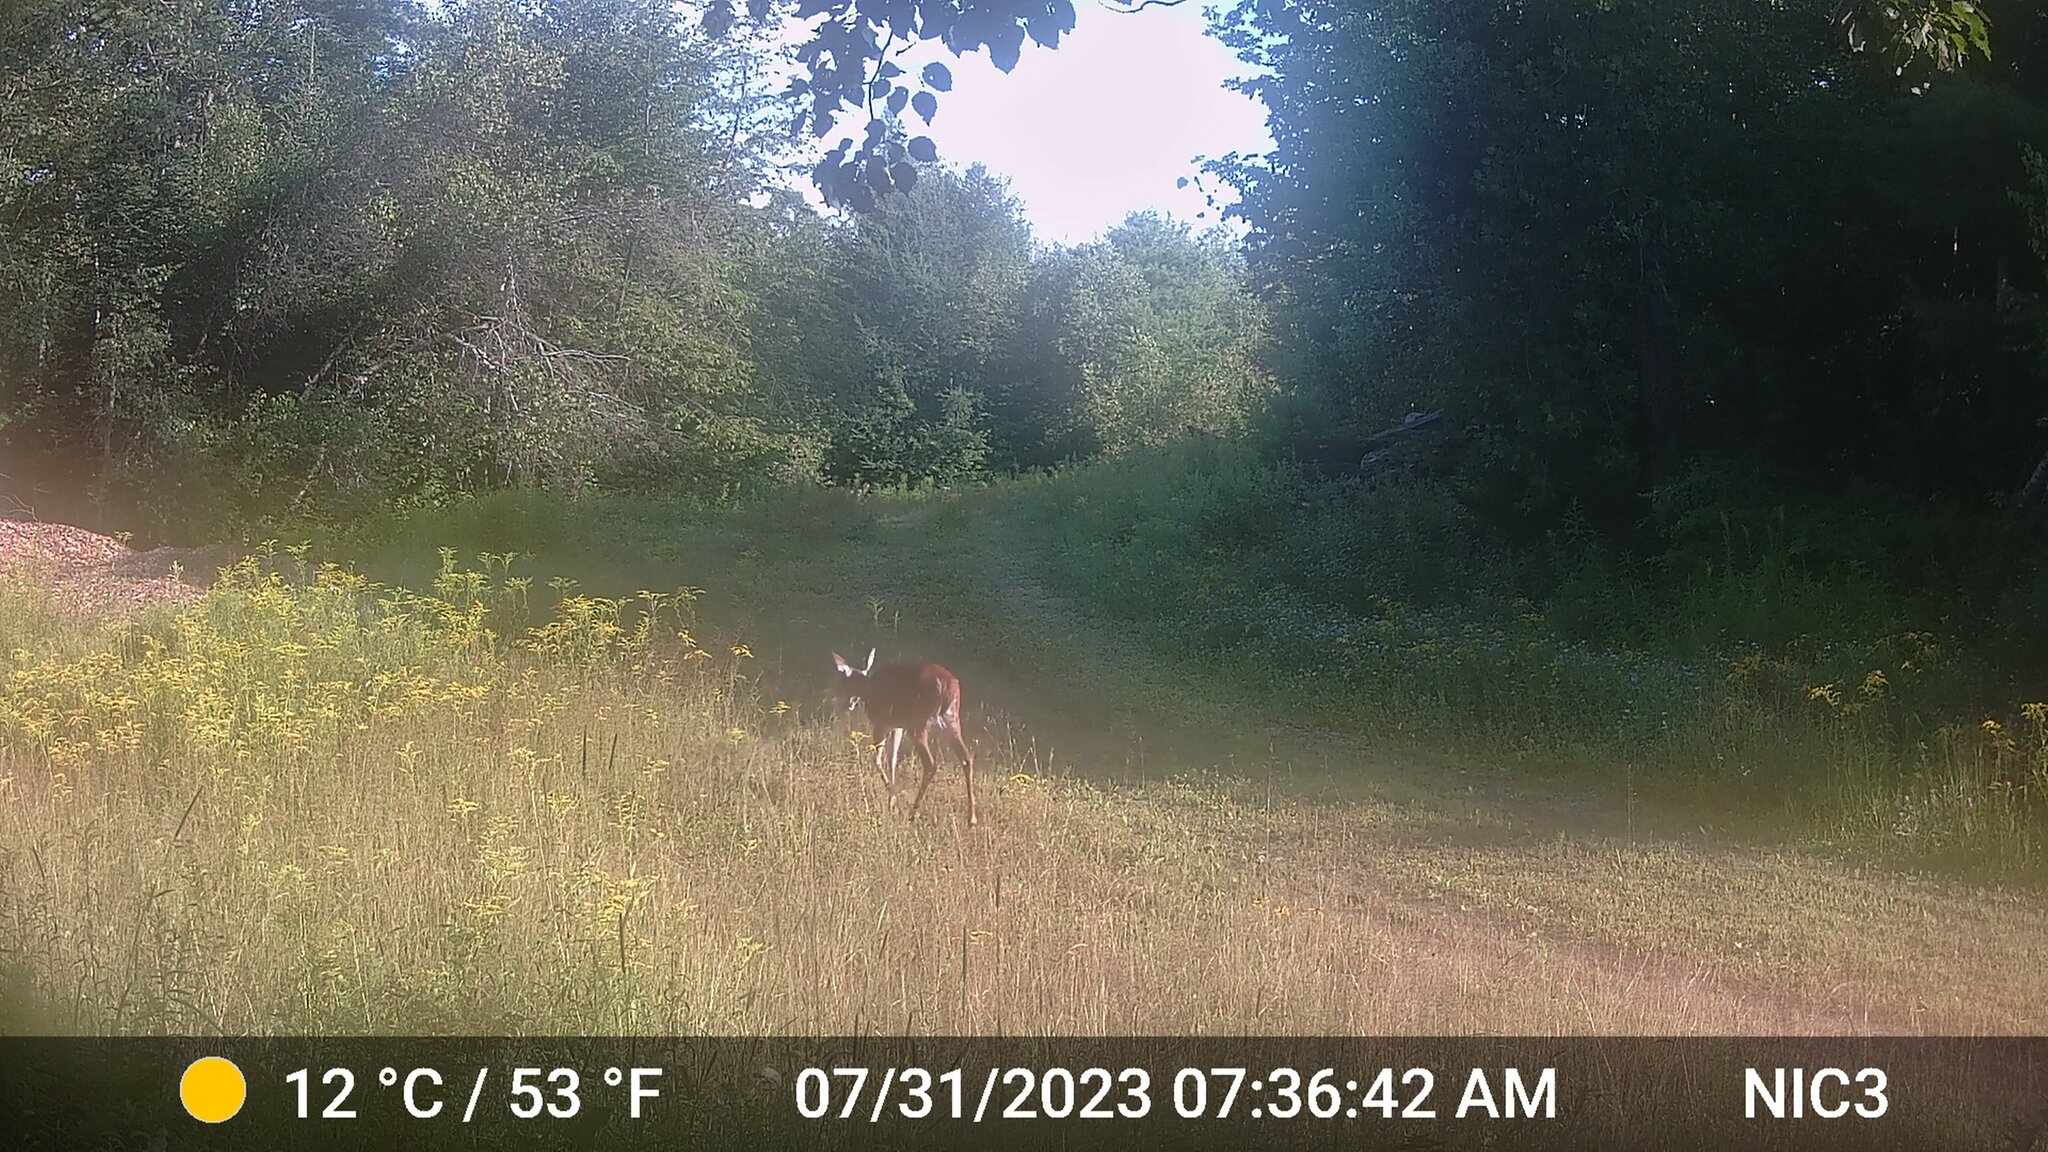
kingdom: Animalia
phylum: Chordata
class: Mammalia
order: Artiodactyla
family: Cervidae
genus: Odocoileus
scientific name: Odocoileus virginianus
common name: White-tailed deer
